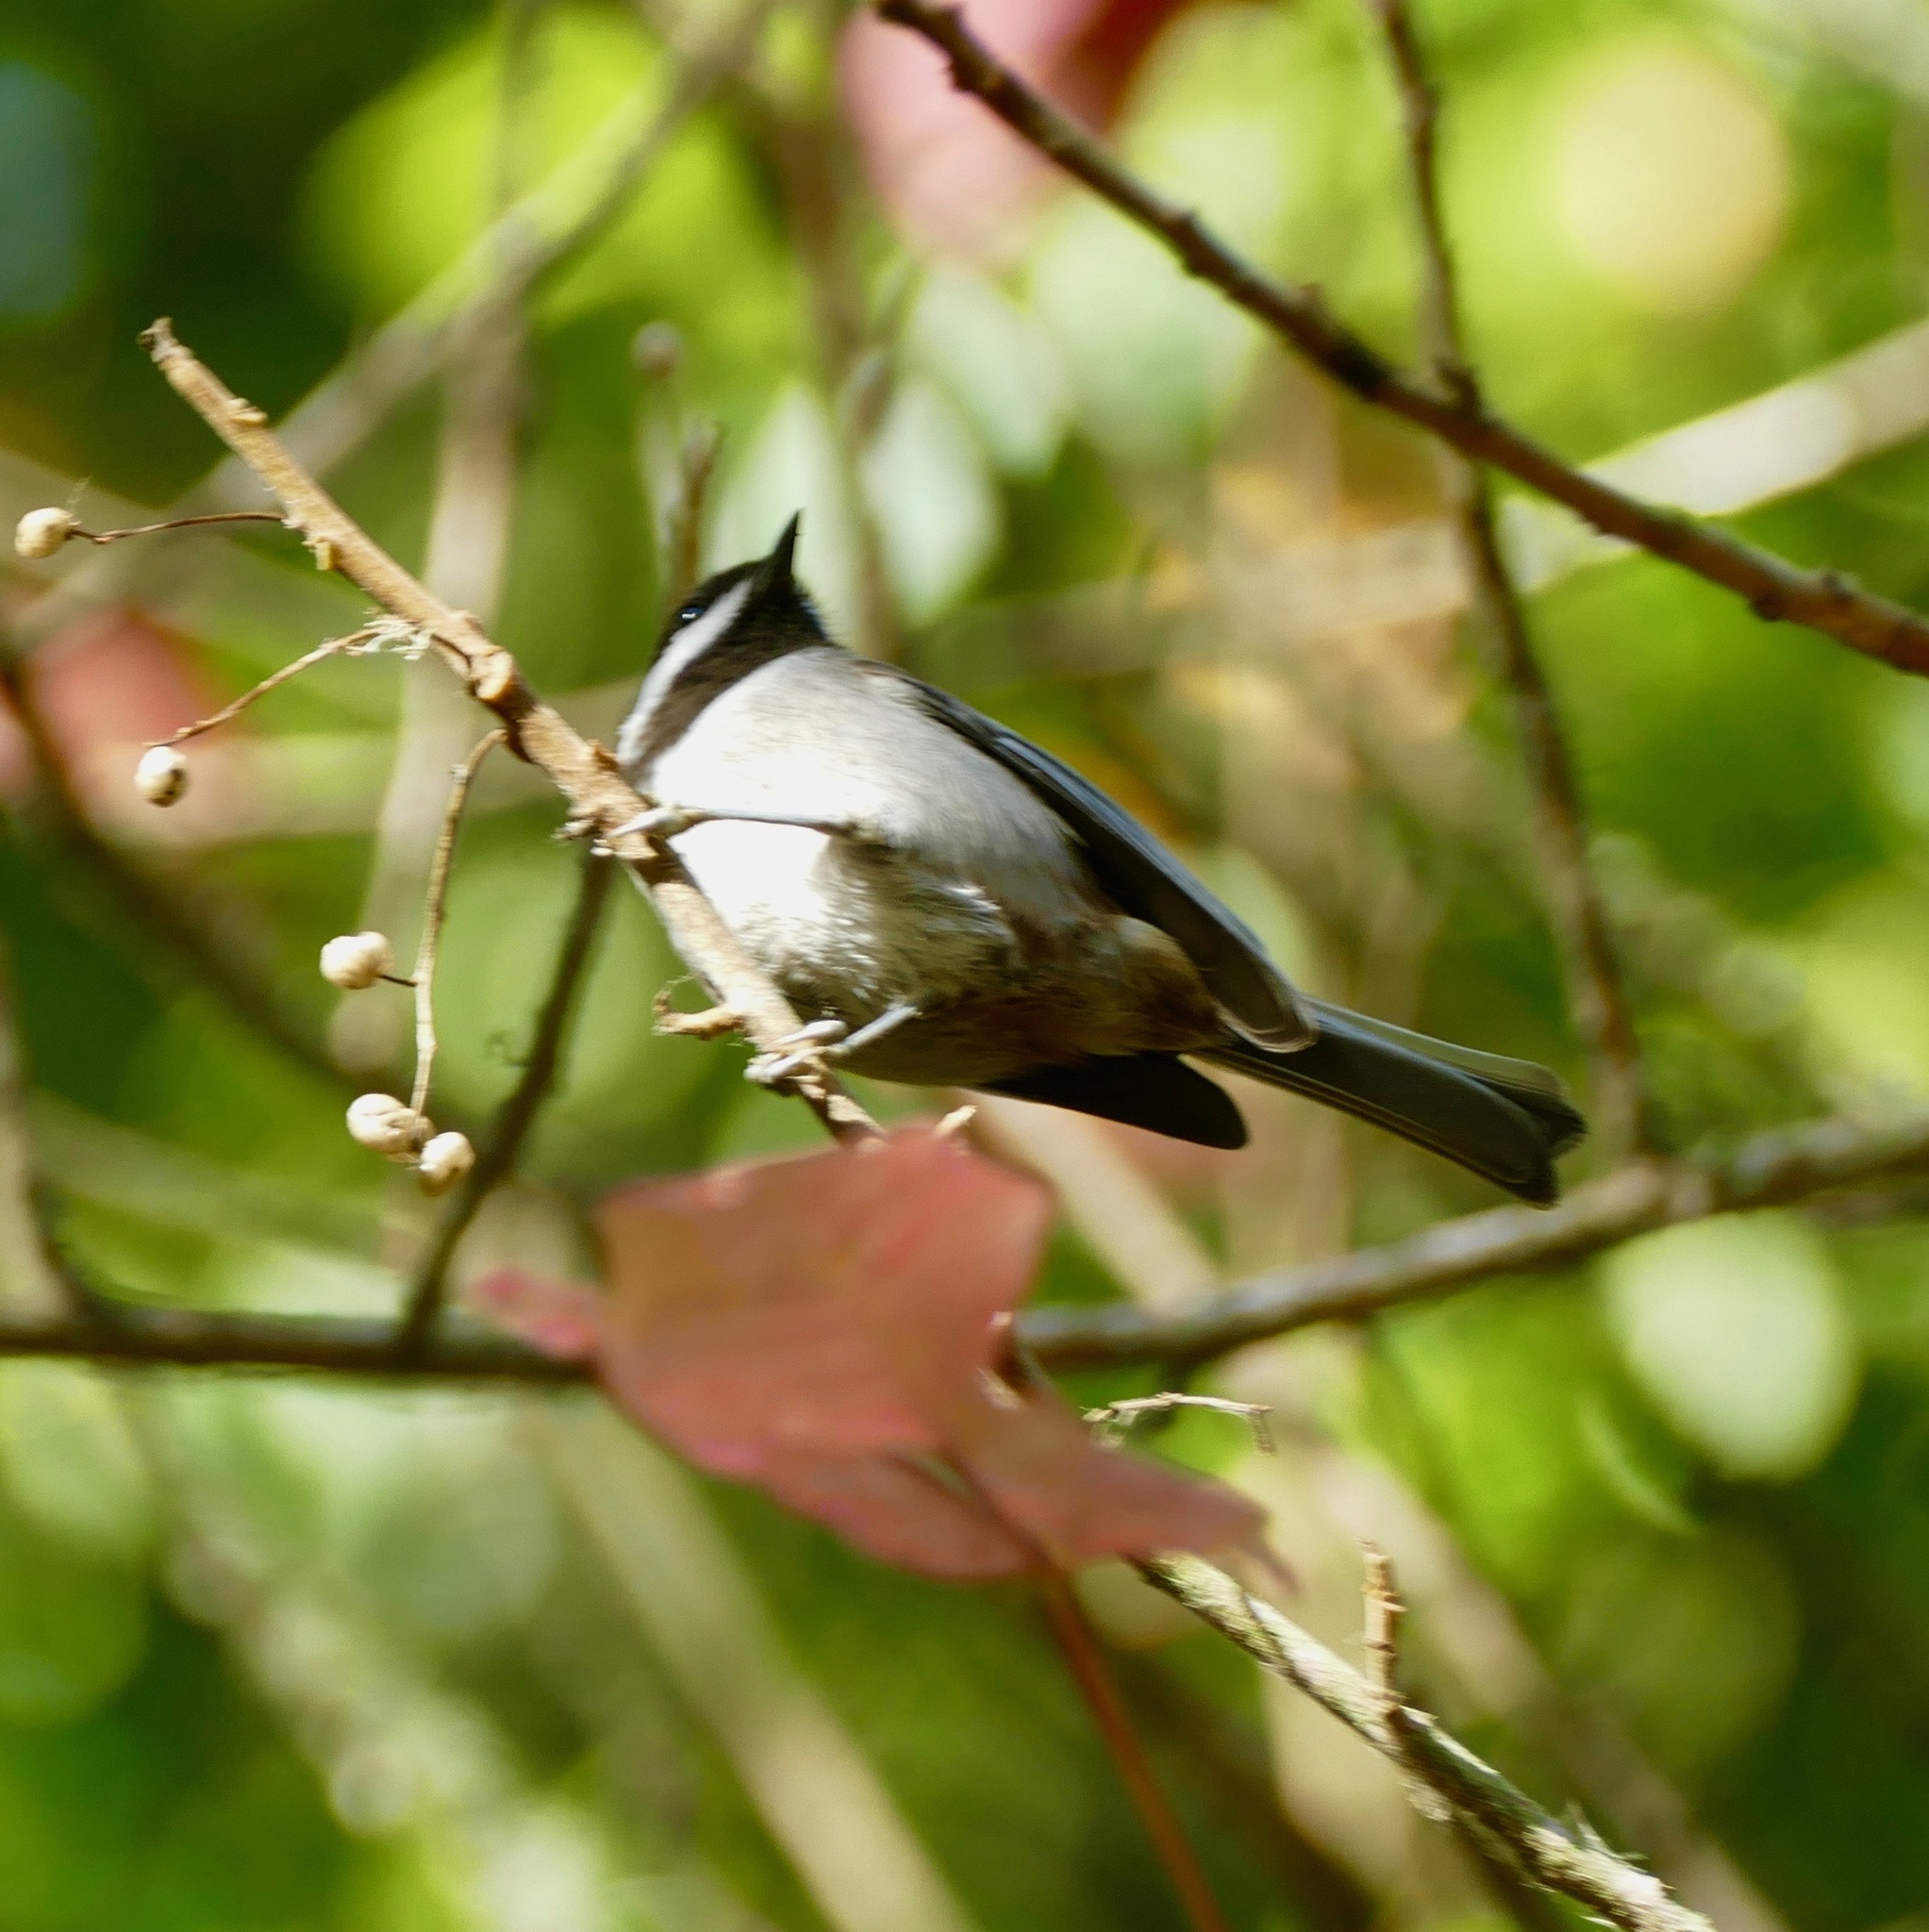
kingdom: Animalia
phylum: Chordata
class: Aves
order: Passeriformes
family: Paridae
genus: Poecile
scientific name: Poecile rufescens
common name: Chestnut-backed chickadee
